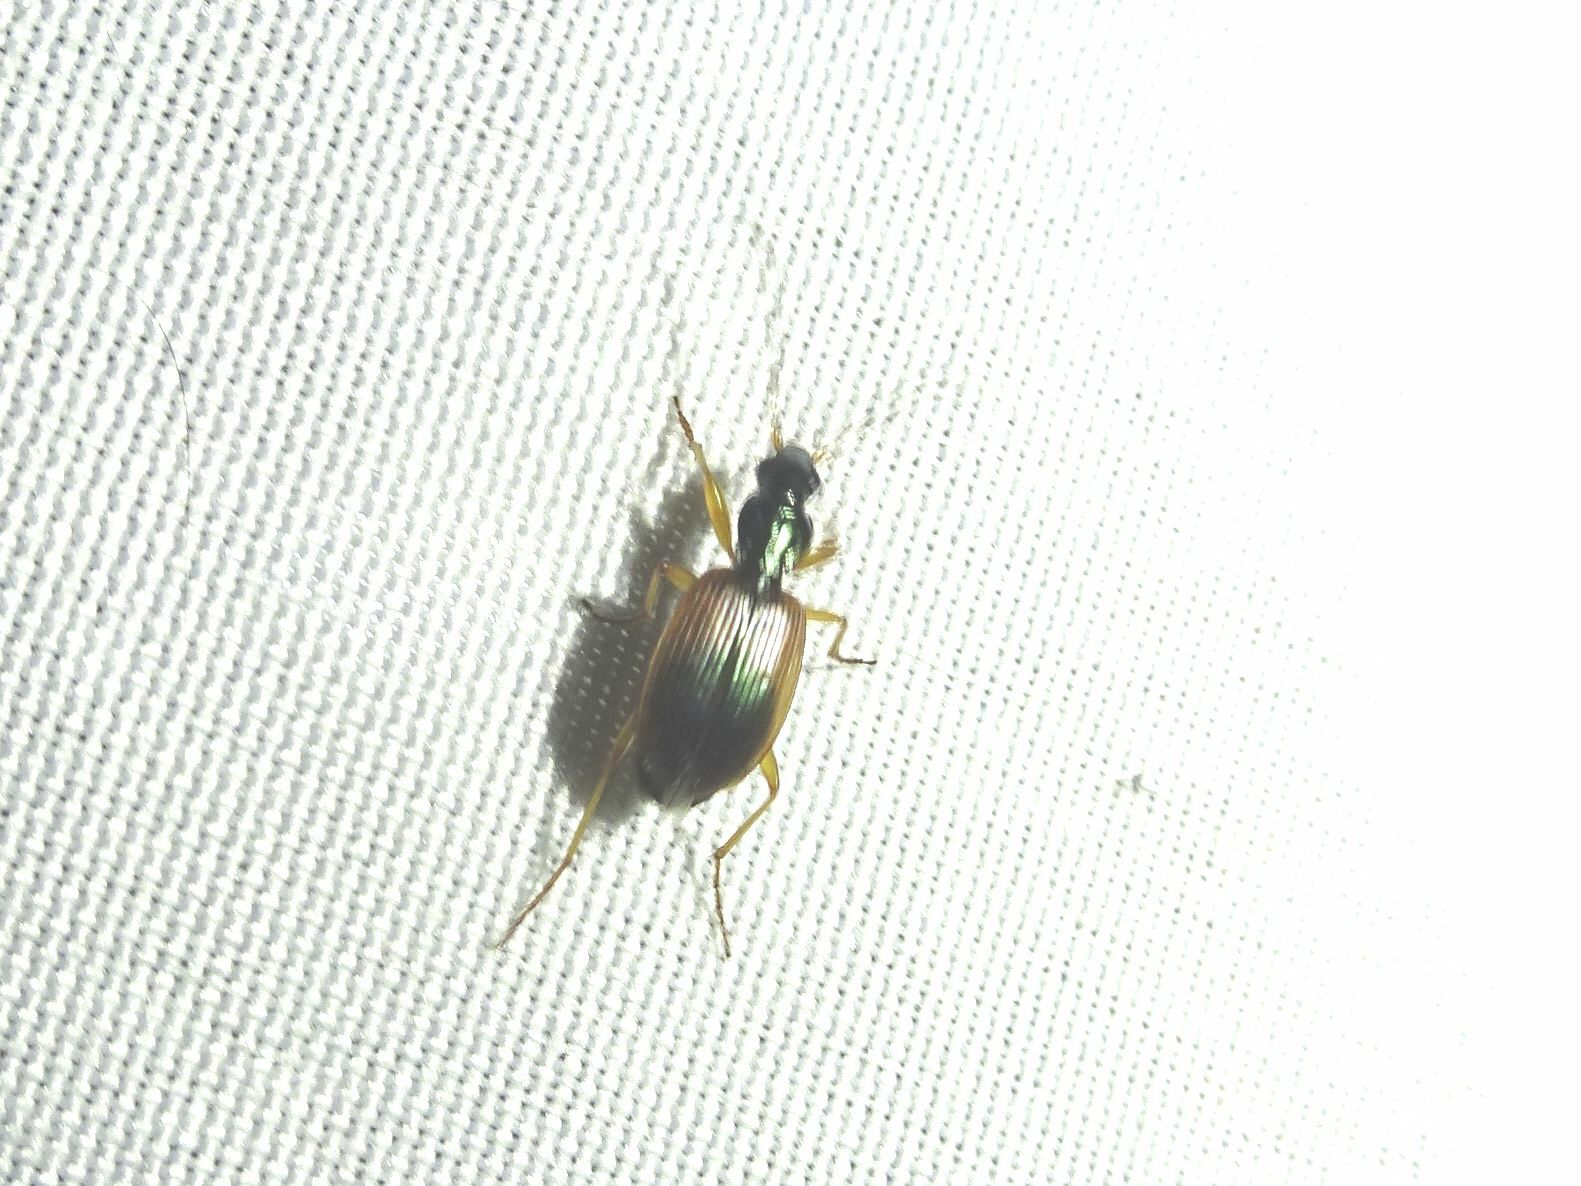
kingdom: Animalia
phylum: Arthropoda
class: Insecta
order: Coleoptera
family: Carabidae
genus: Anchomenus
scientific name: Anchomenus dorsalis
